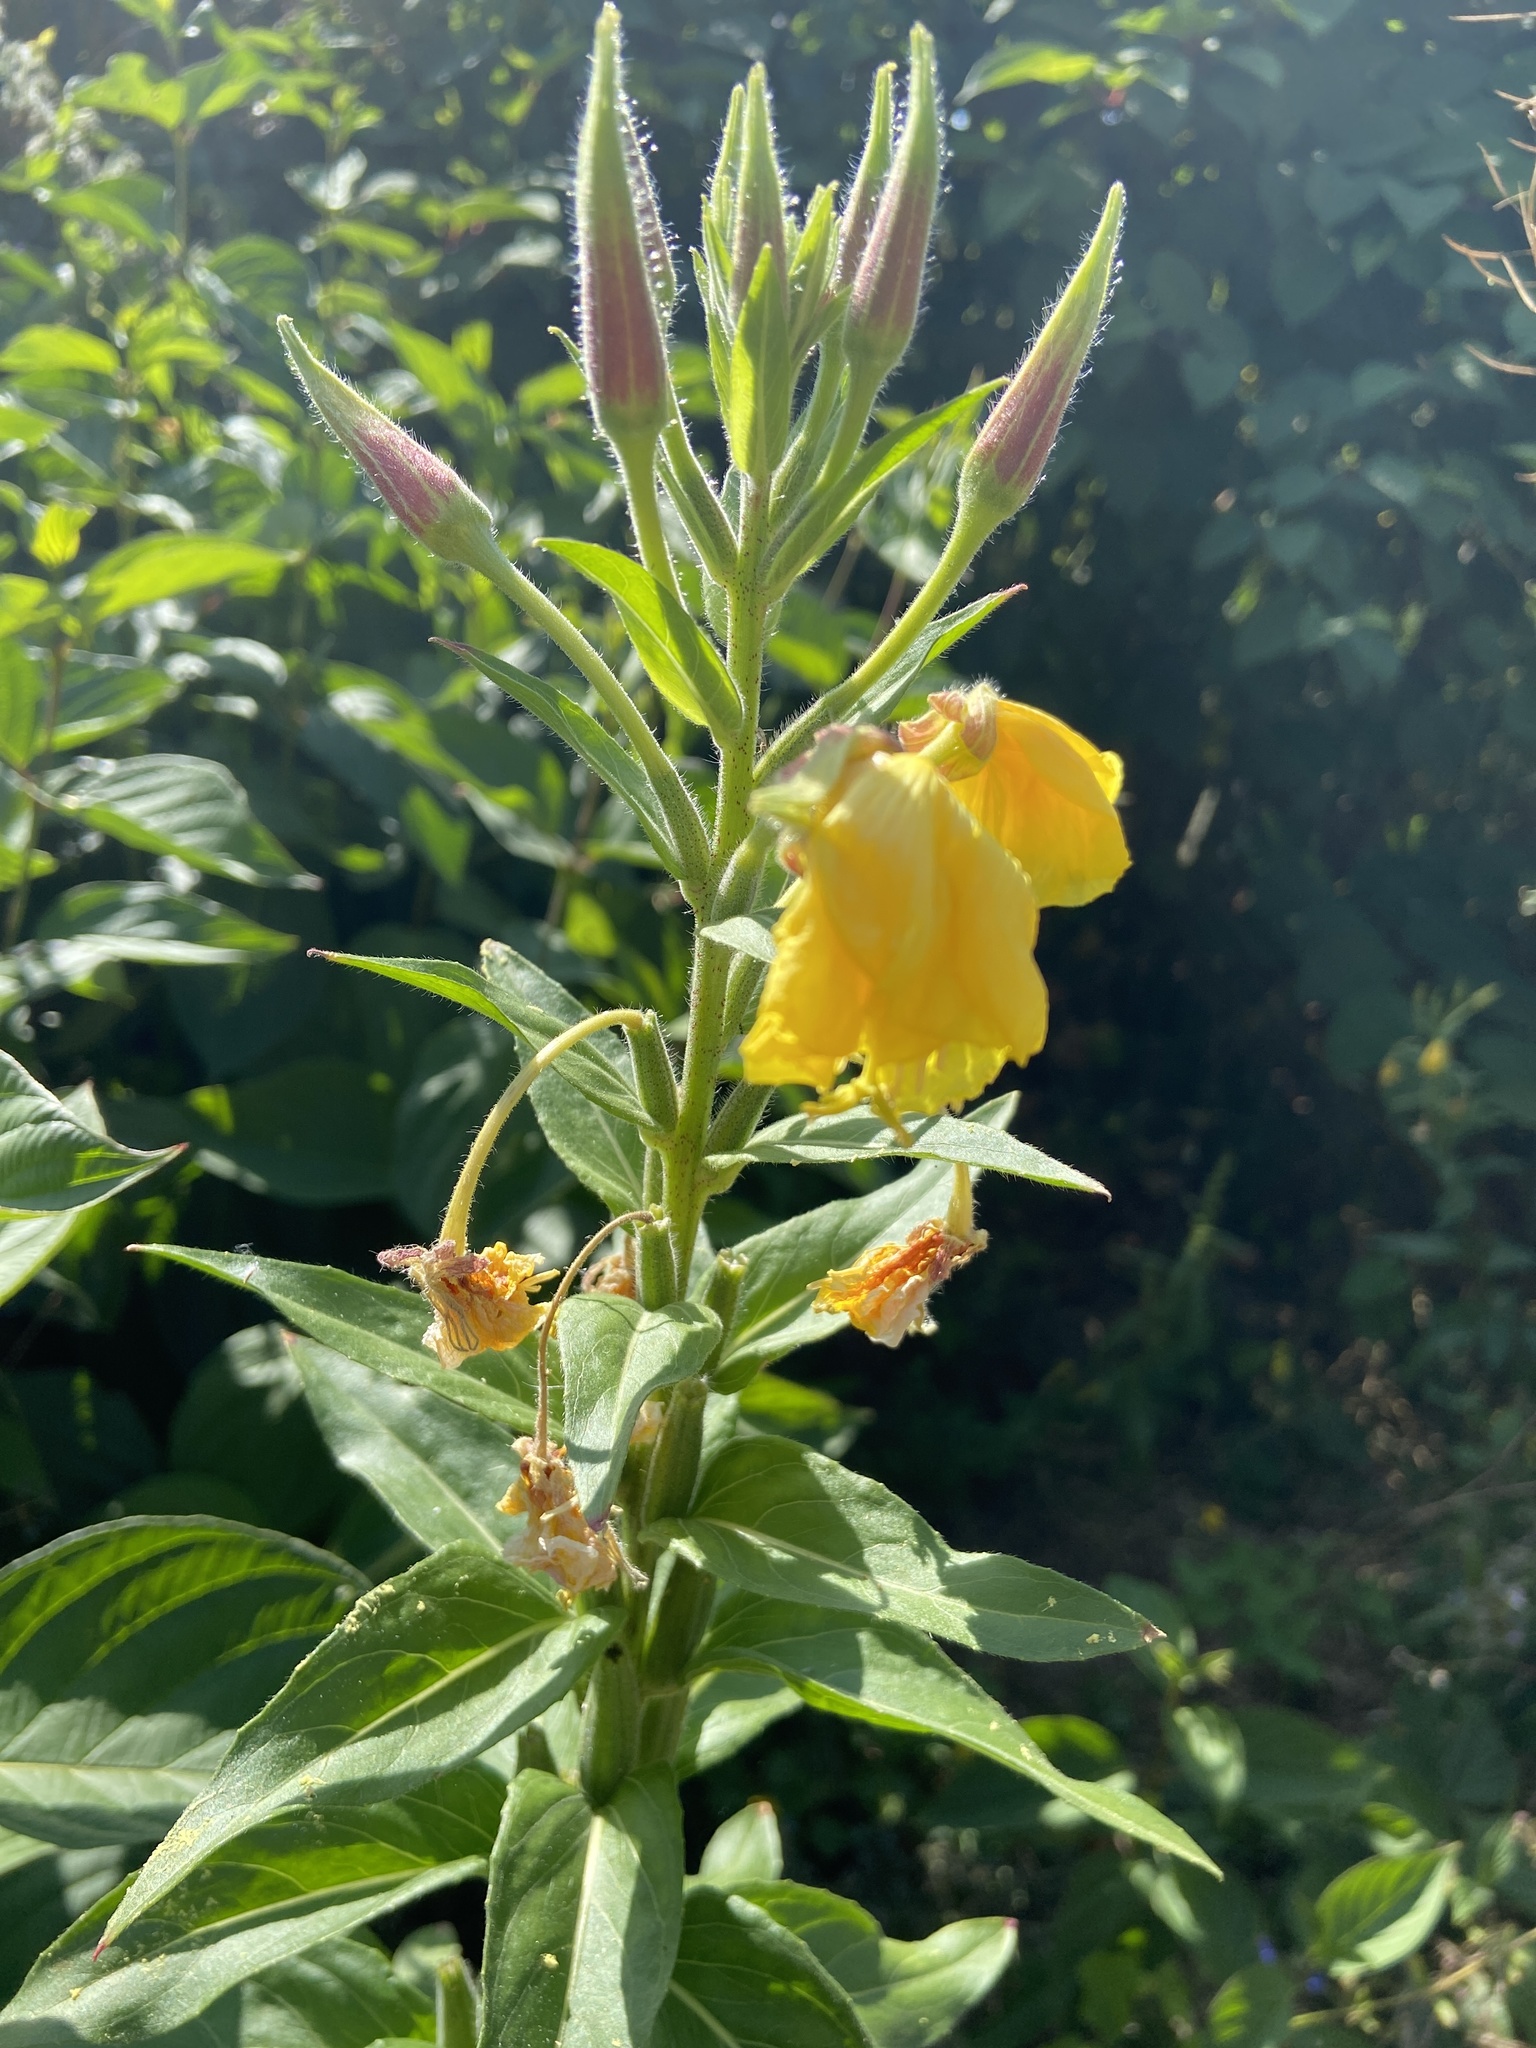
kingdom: Plantae
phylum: Tracheophyta
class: Magnoliopsida
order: Myrtales
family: Onagraceae
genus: Oenothera
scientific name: Oenothera glazioviana
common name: Large-flowered evening-primrose
